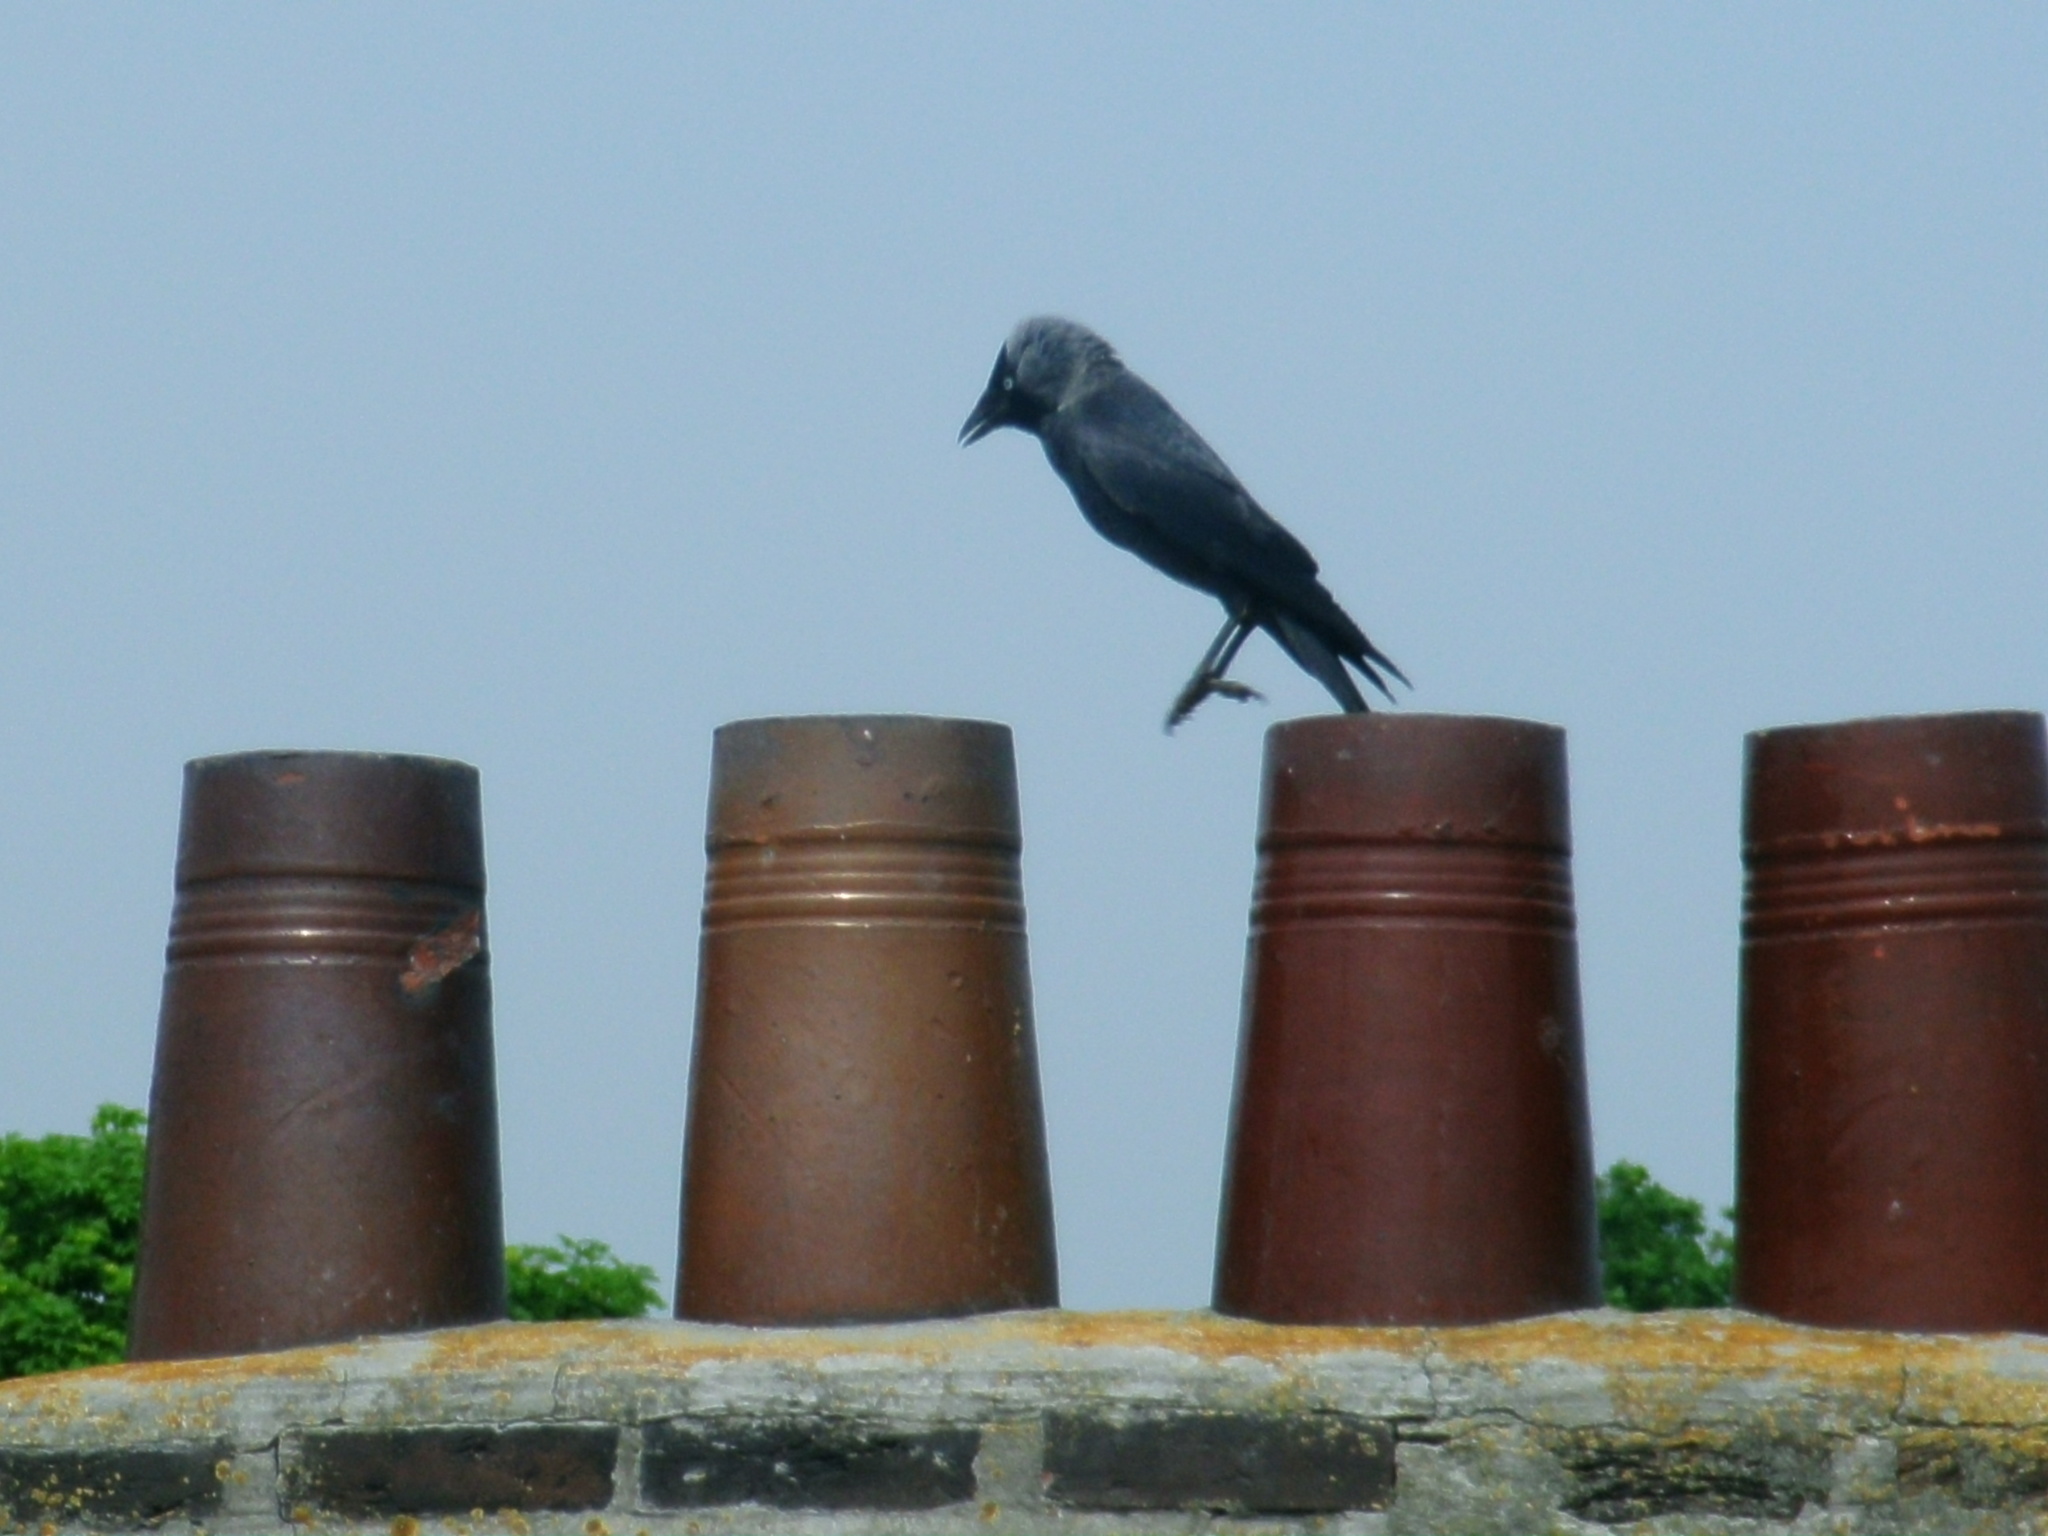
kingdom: Animalia
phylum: Chordata
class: Aves
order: Passeriformes
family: Corvidae
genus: Coloeus
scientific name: Coloeus monedula
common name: Western jackdaw
